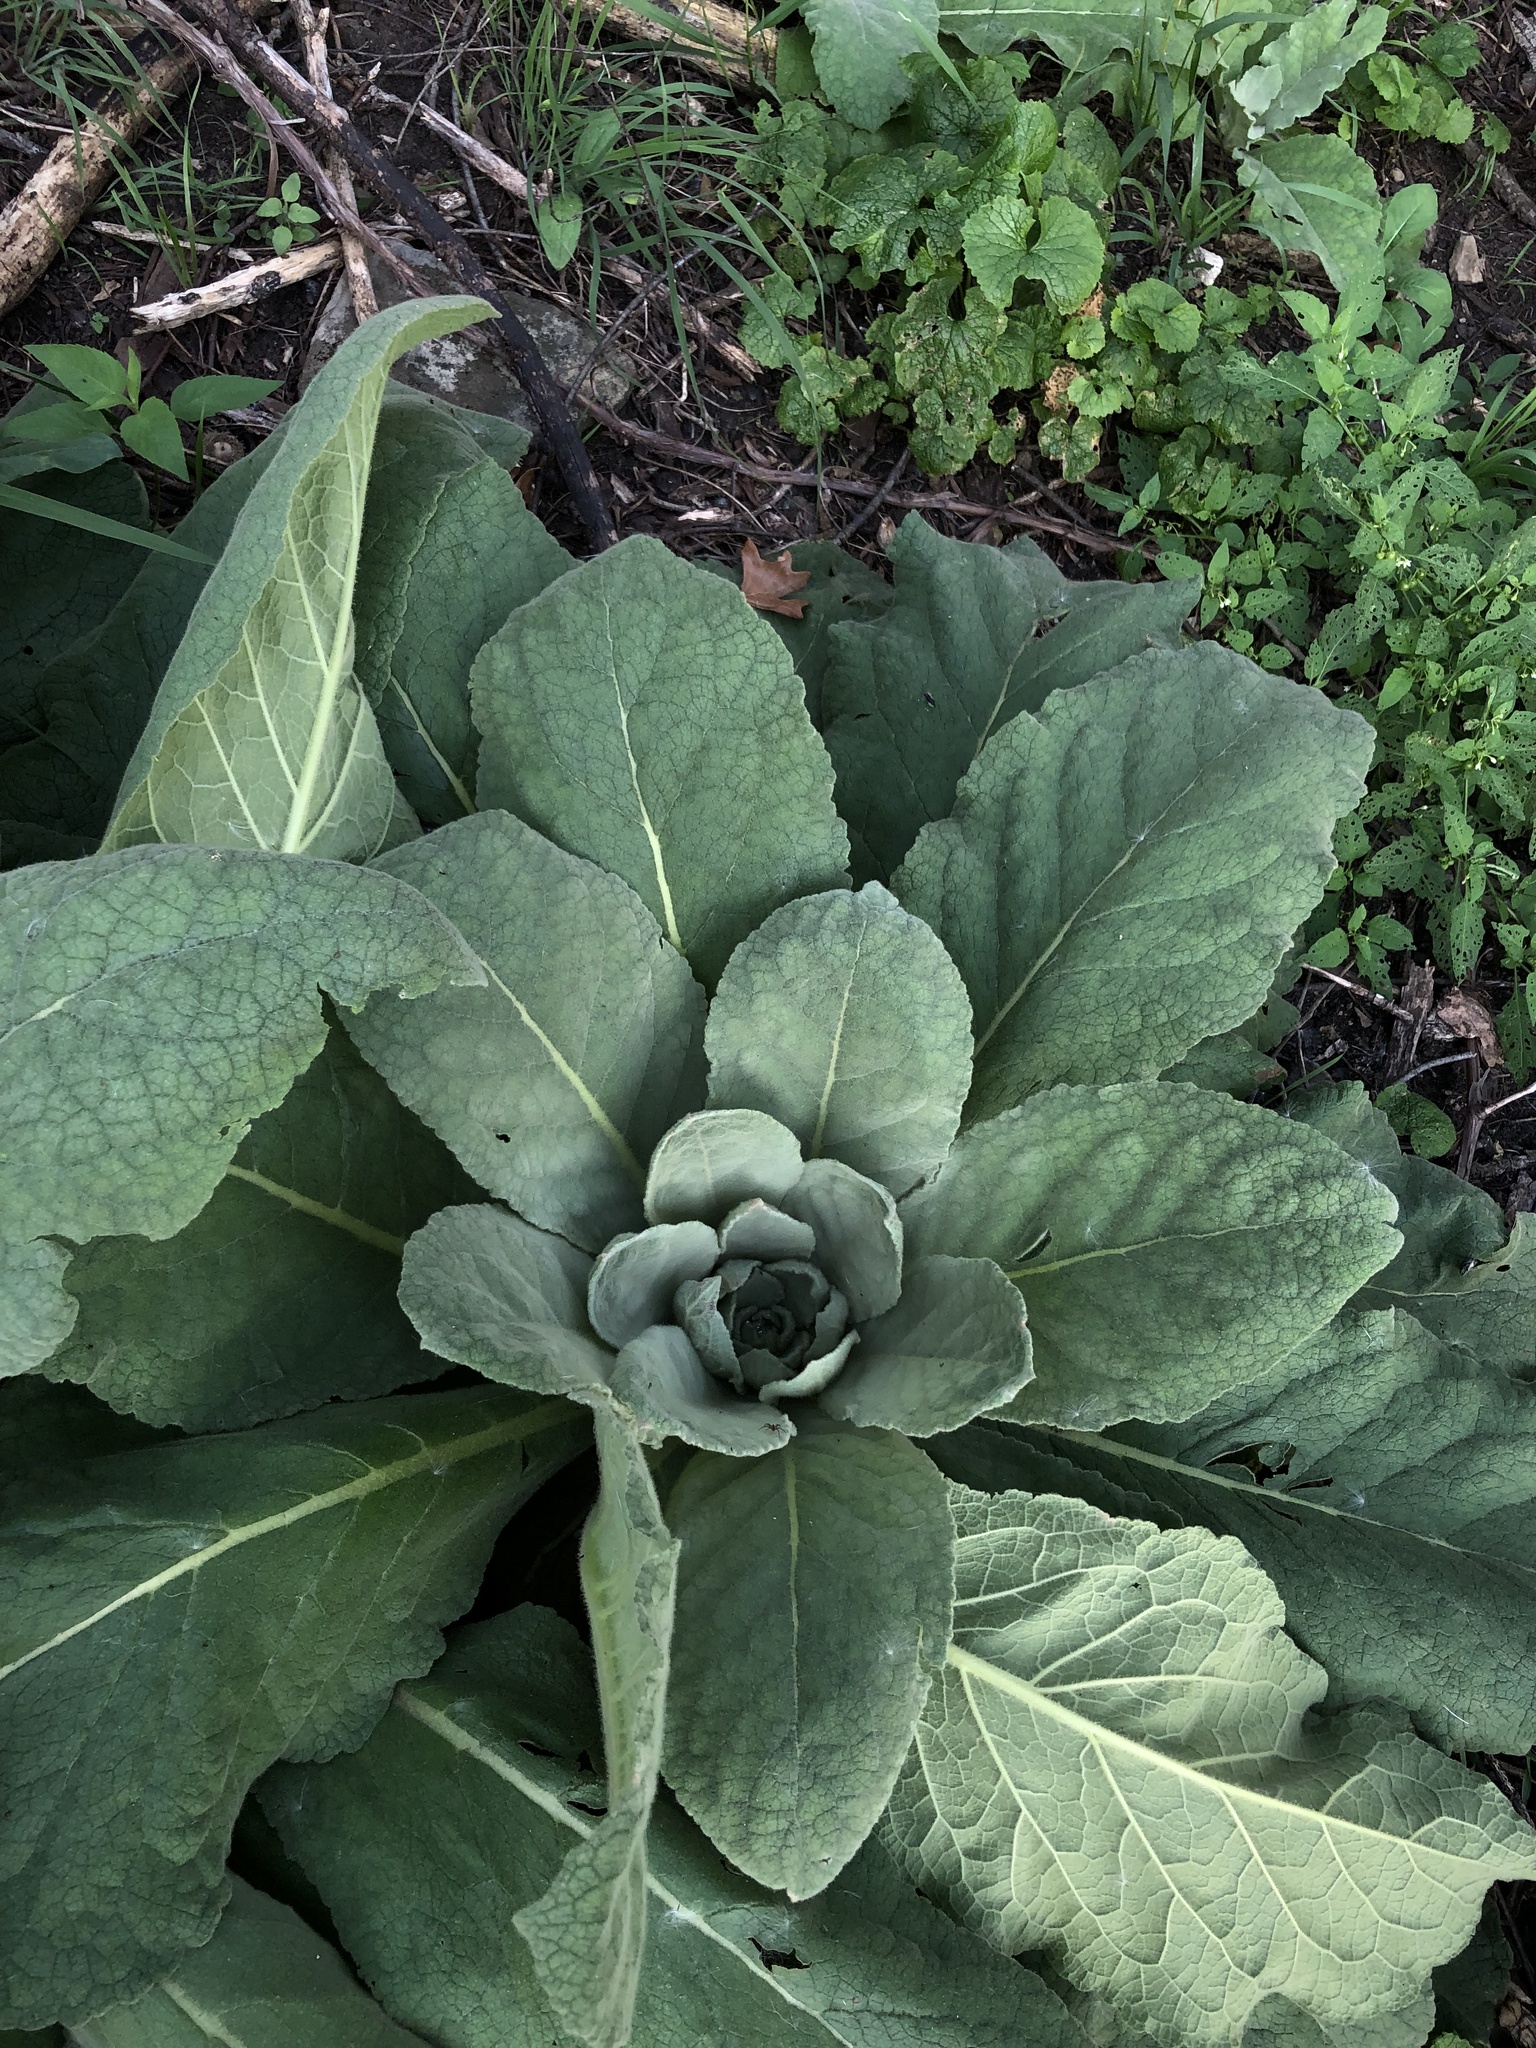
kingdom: Plantae
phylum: Tracheophyta
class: Magnoliopsida
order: Lamiales
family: Scrophulariaceae
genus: Verbascum
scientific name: Verbascum thapsus
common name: Common mullein
